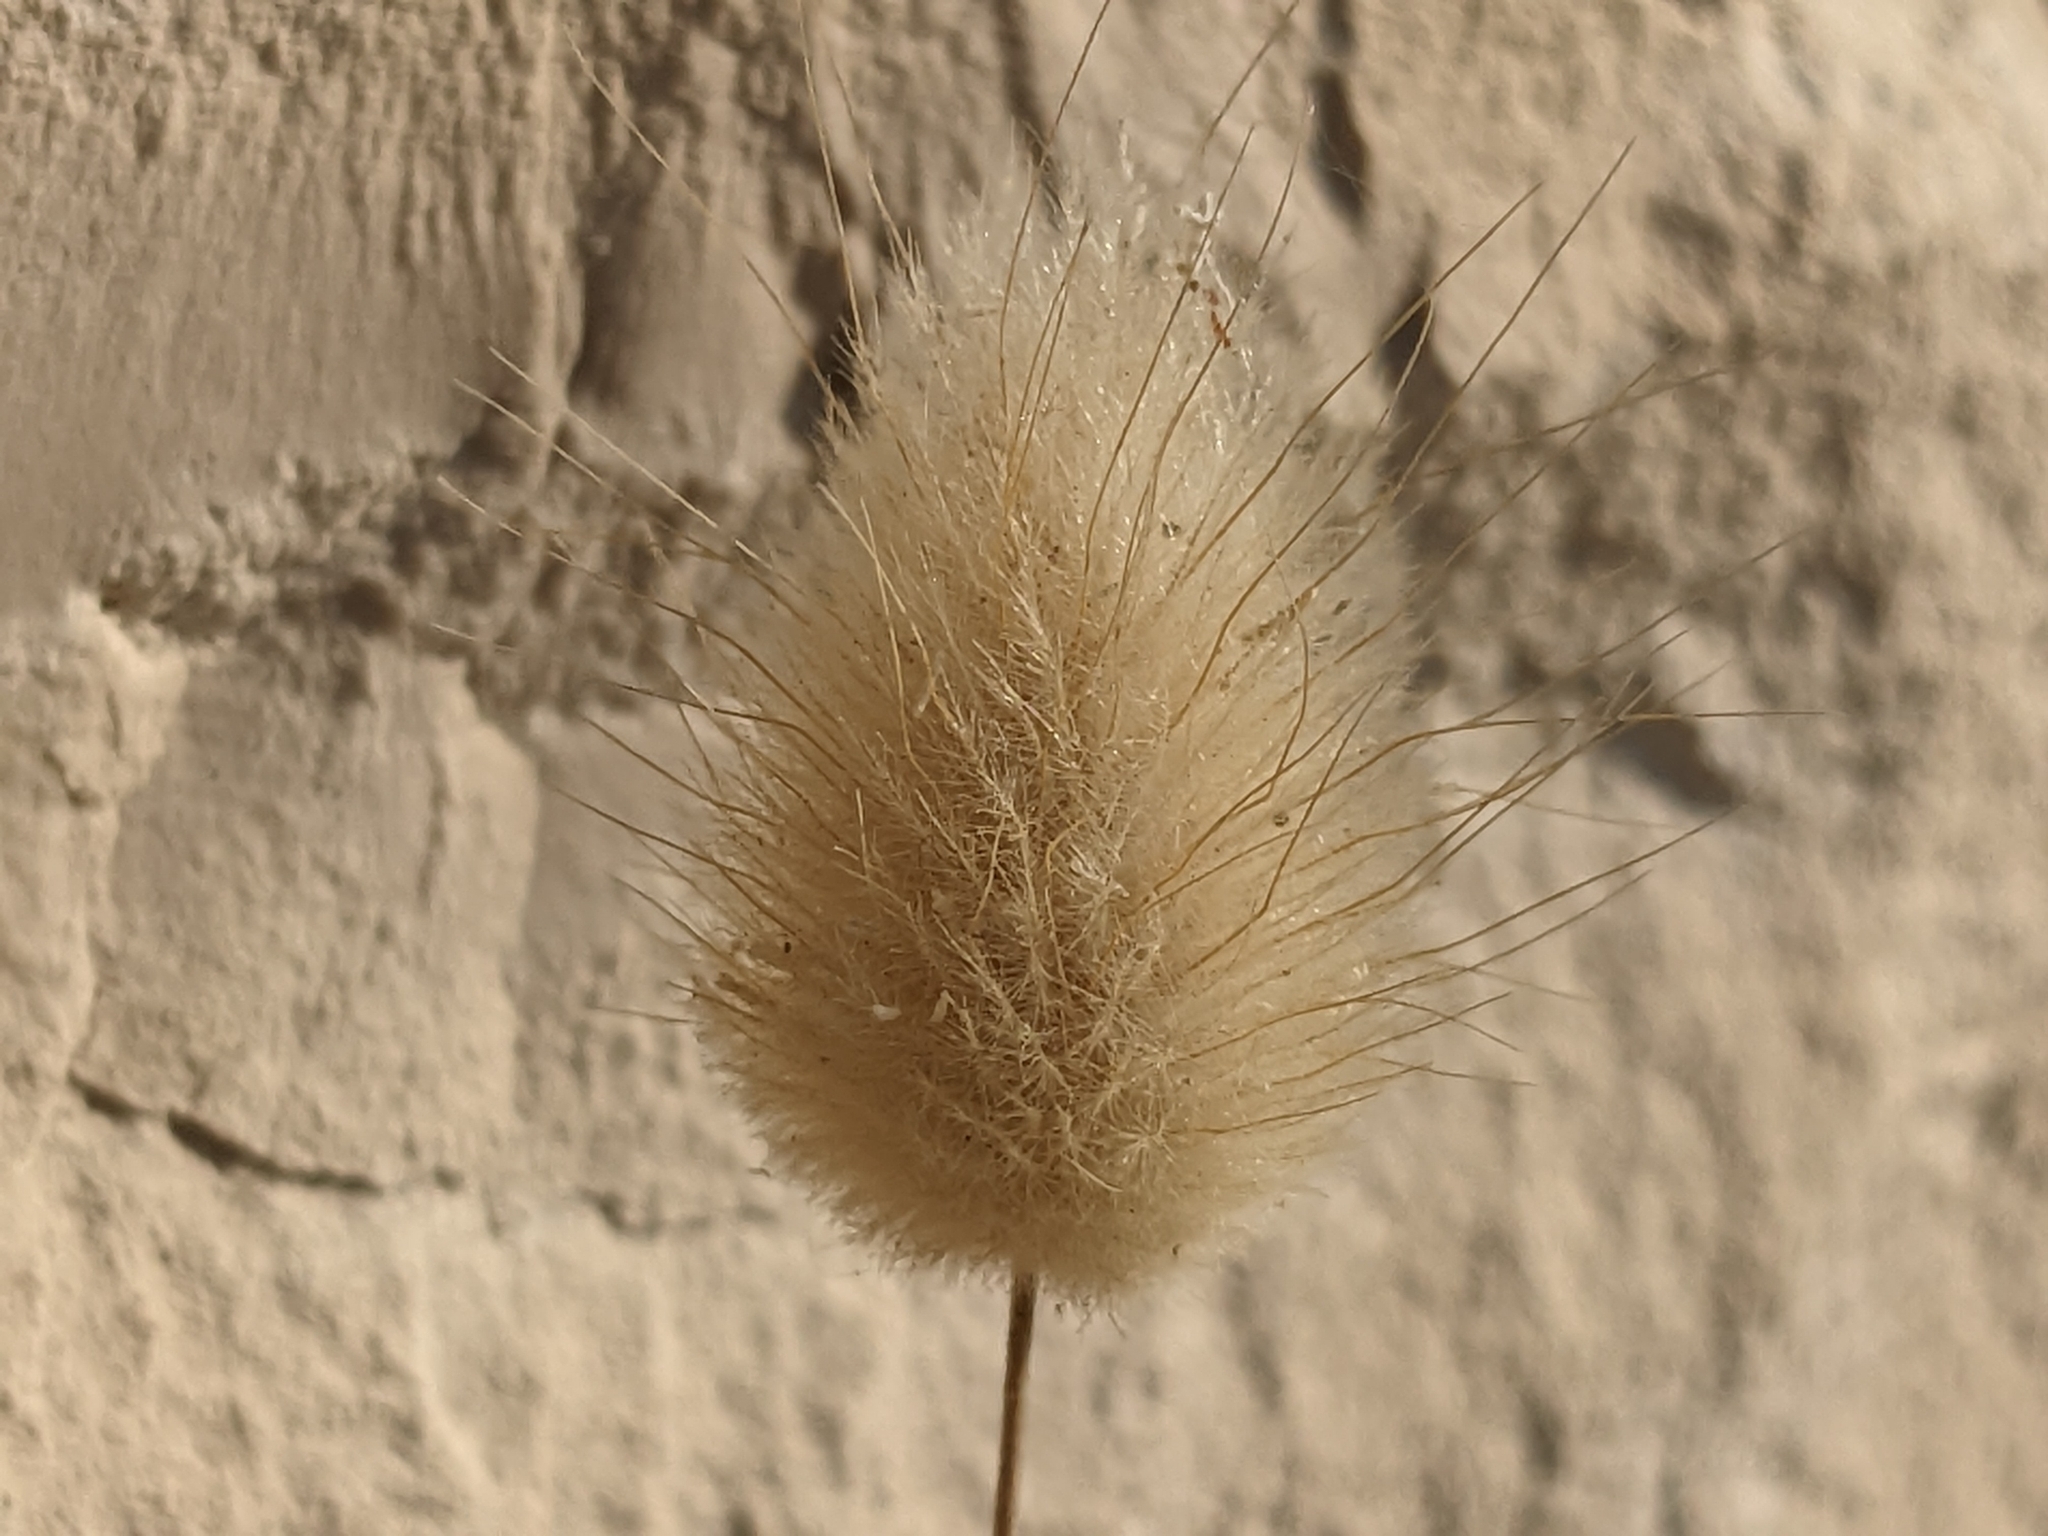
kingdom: Plantae
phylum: Tracheophyta
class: Liliopsida
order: Poales
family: Poaceae
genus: Lagurus
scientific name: Lagurus ovatus
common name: Hare's-tail
